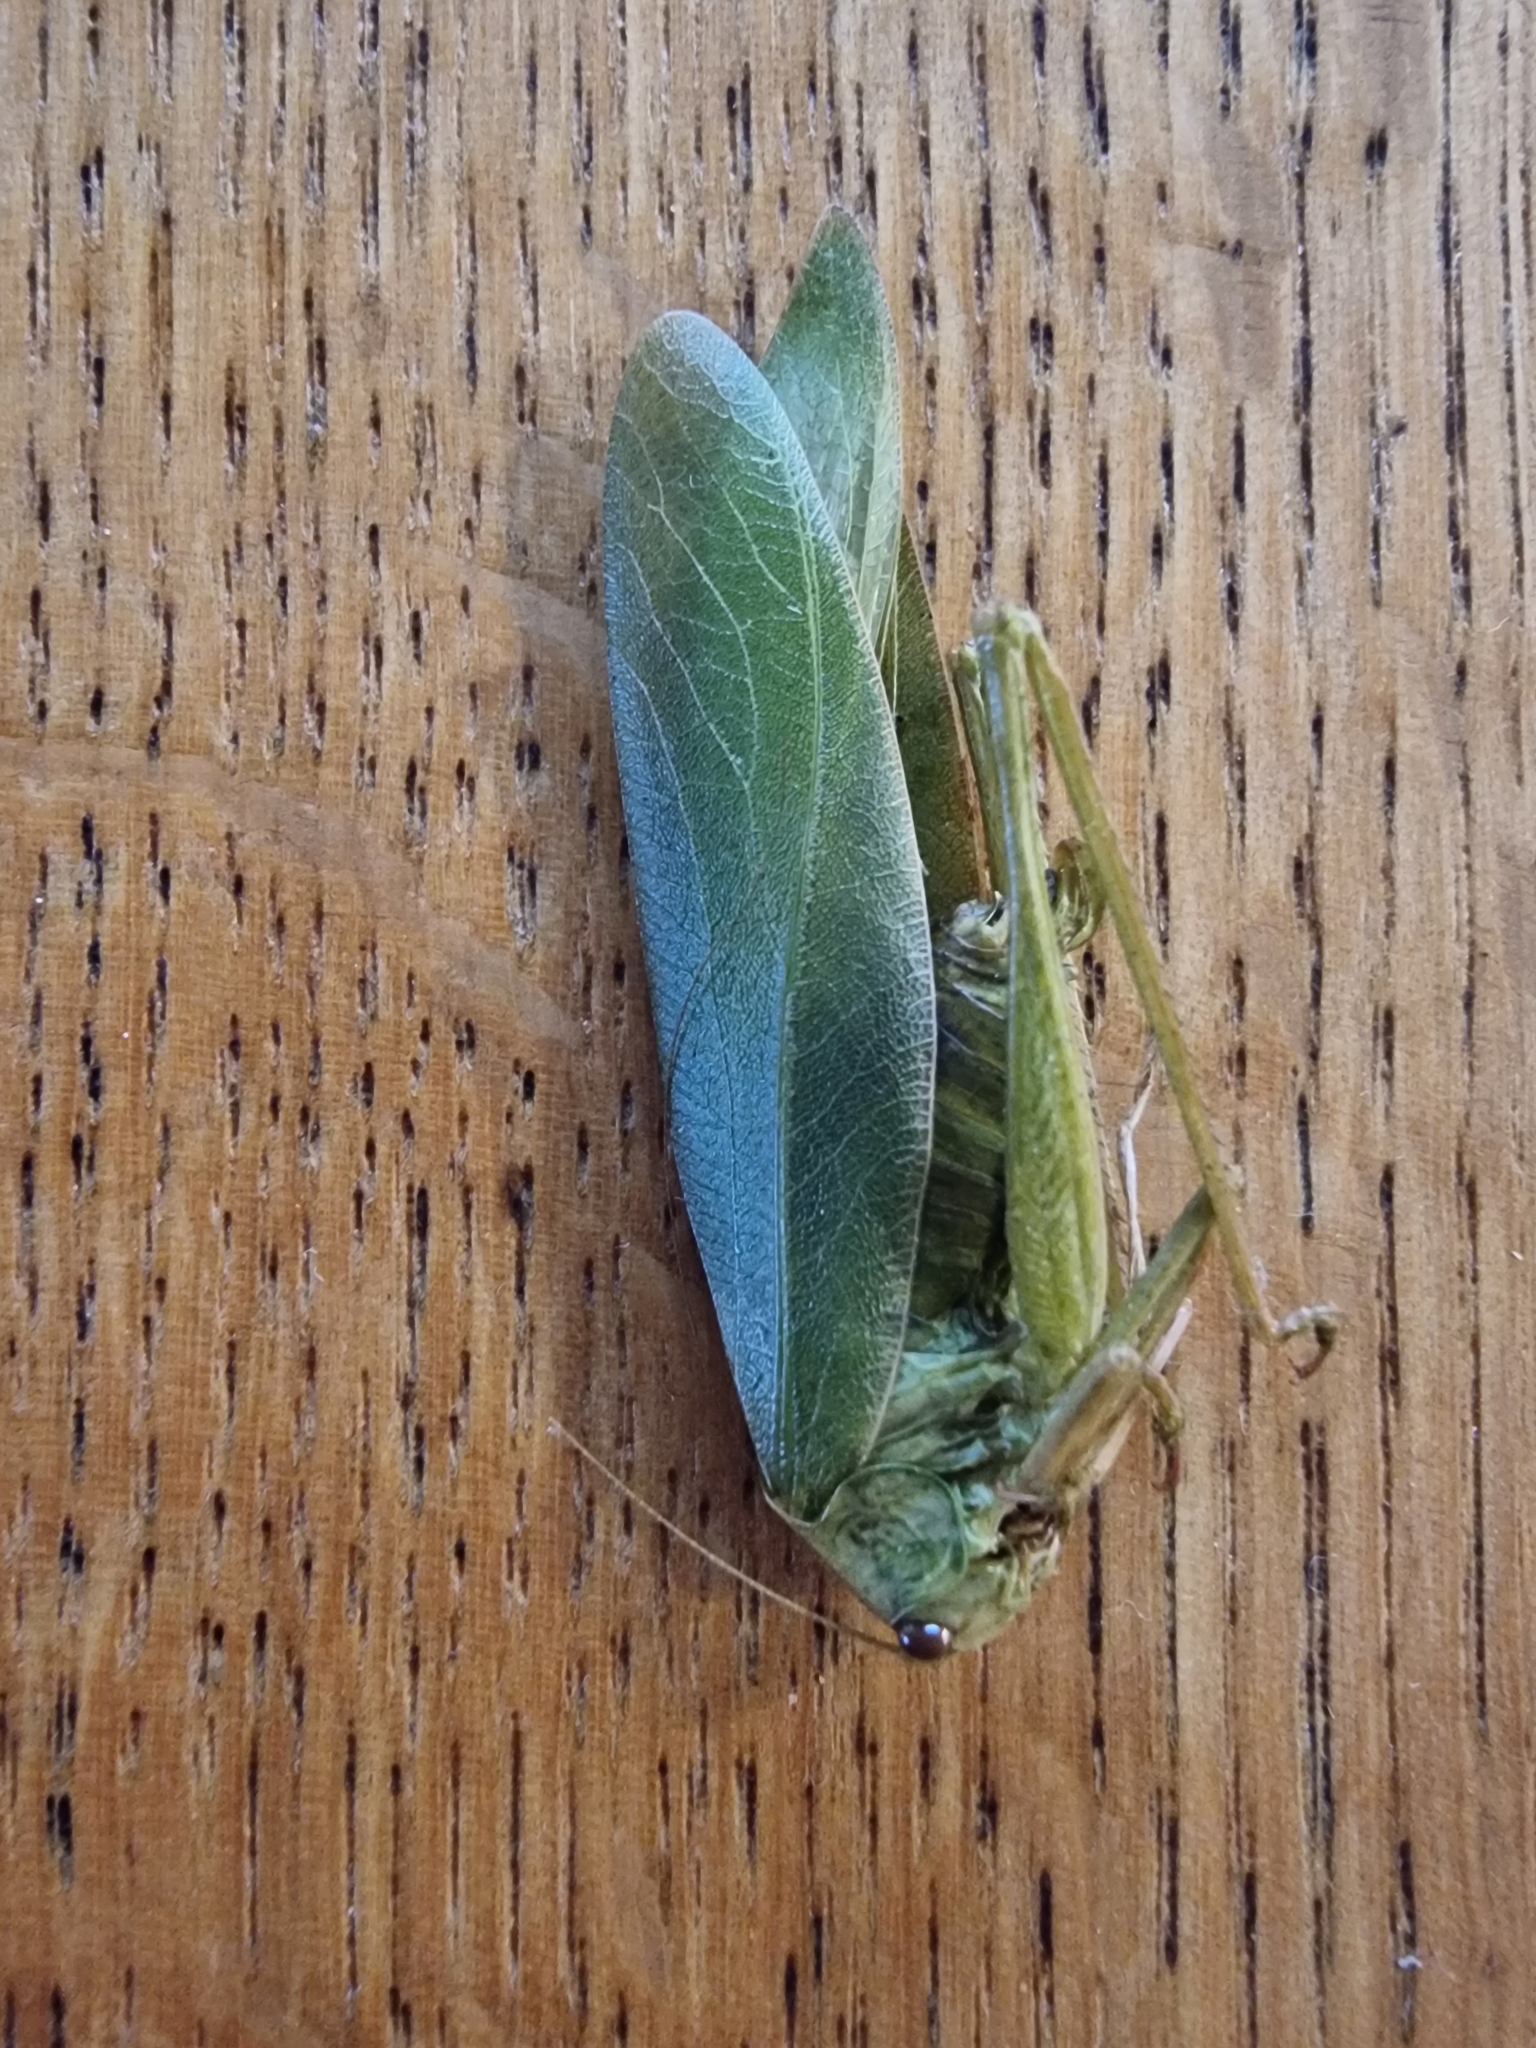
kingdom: Animalia
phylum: Arthropoda
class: Insecta
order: Orthoptera
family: Tettigoniidae
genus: Caedicia
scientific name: Caedicia simplex
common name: Common garden katydid
